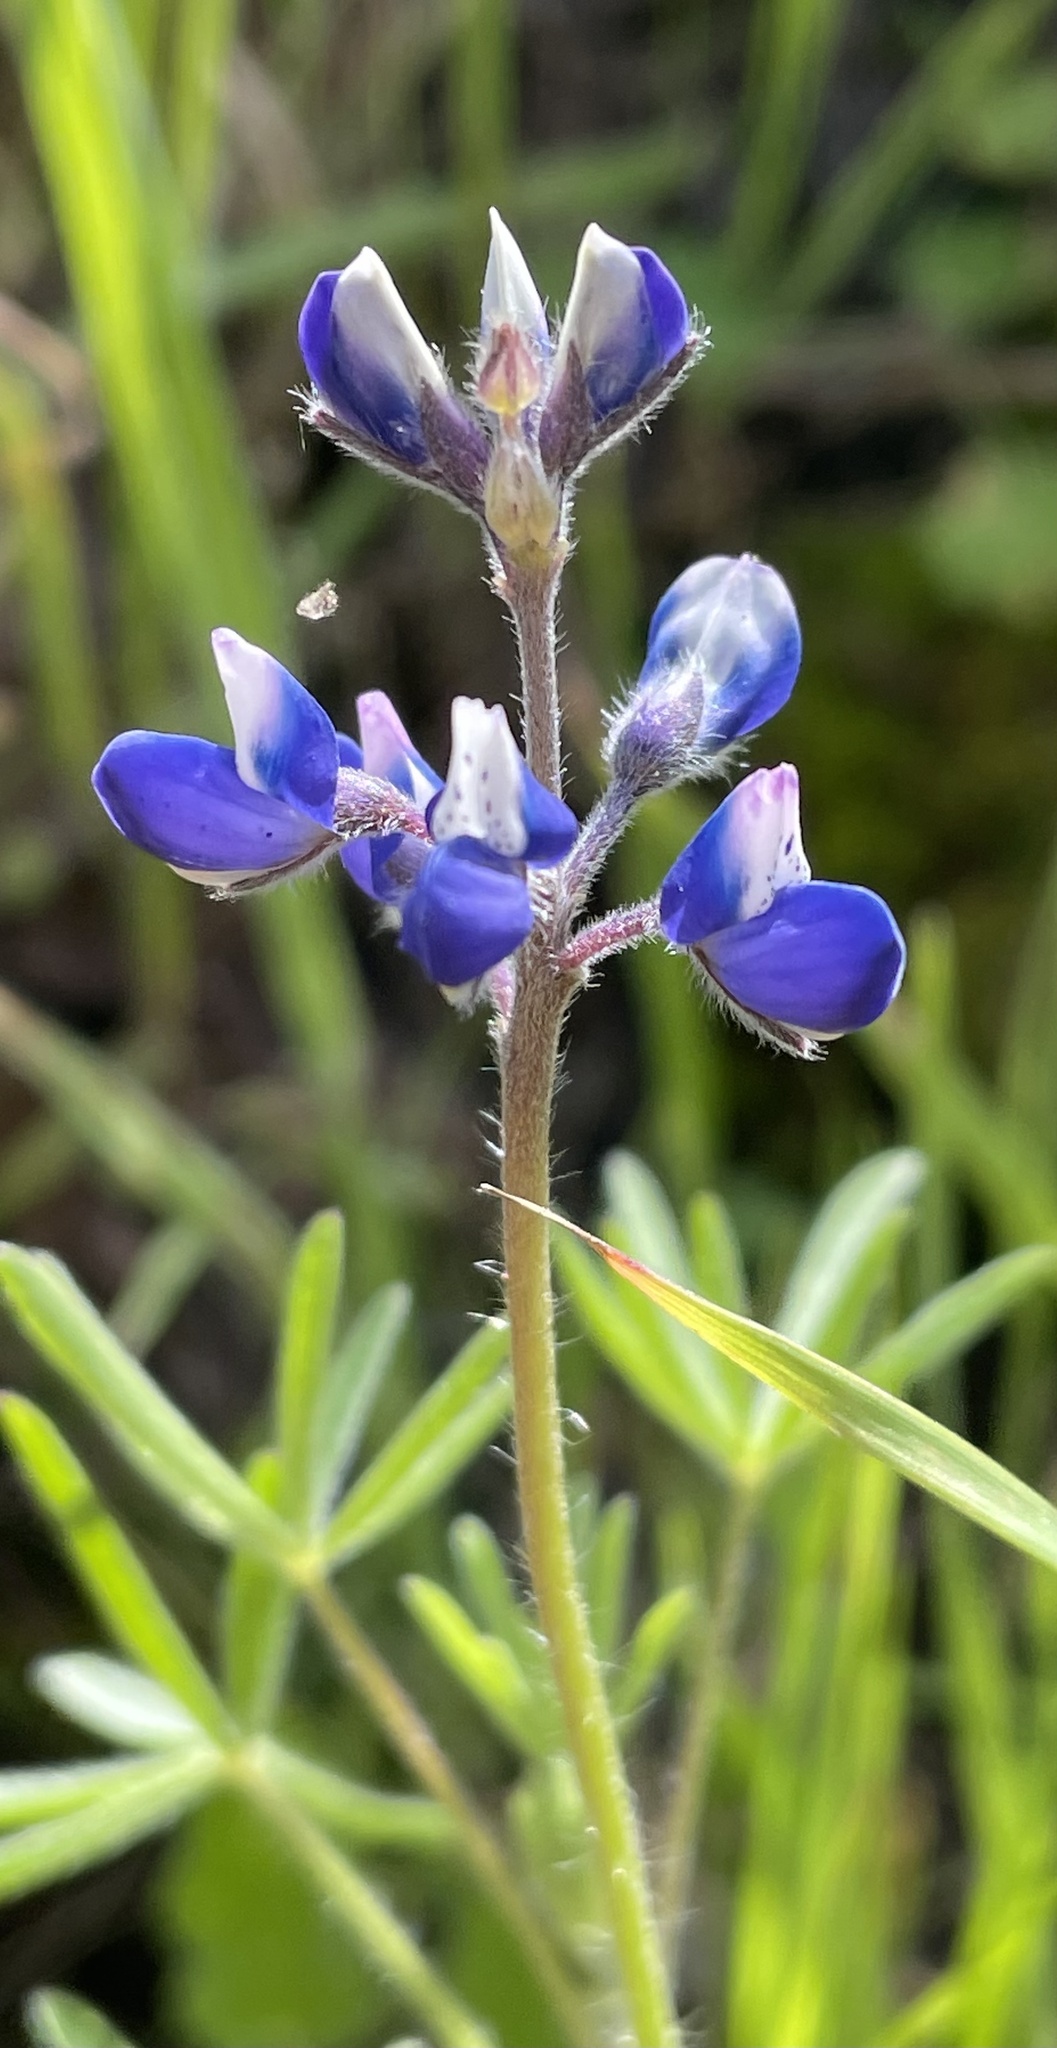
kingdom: Plantae
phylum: Tracheophyta
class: Magnoliopsida
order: Fabales
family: Fabaceae
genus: Lupinus
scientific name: Lupinus bicolor
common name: Miniature lupine
